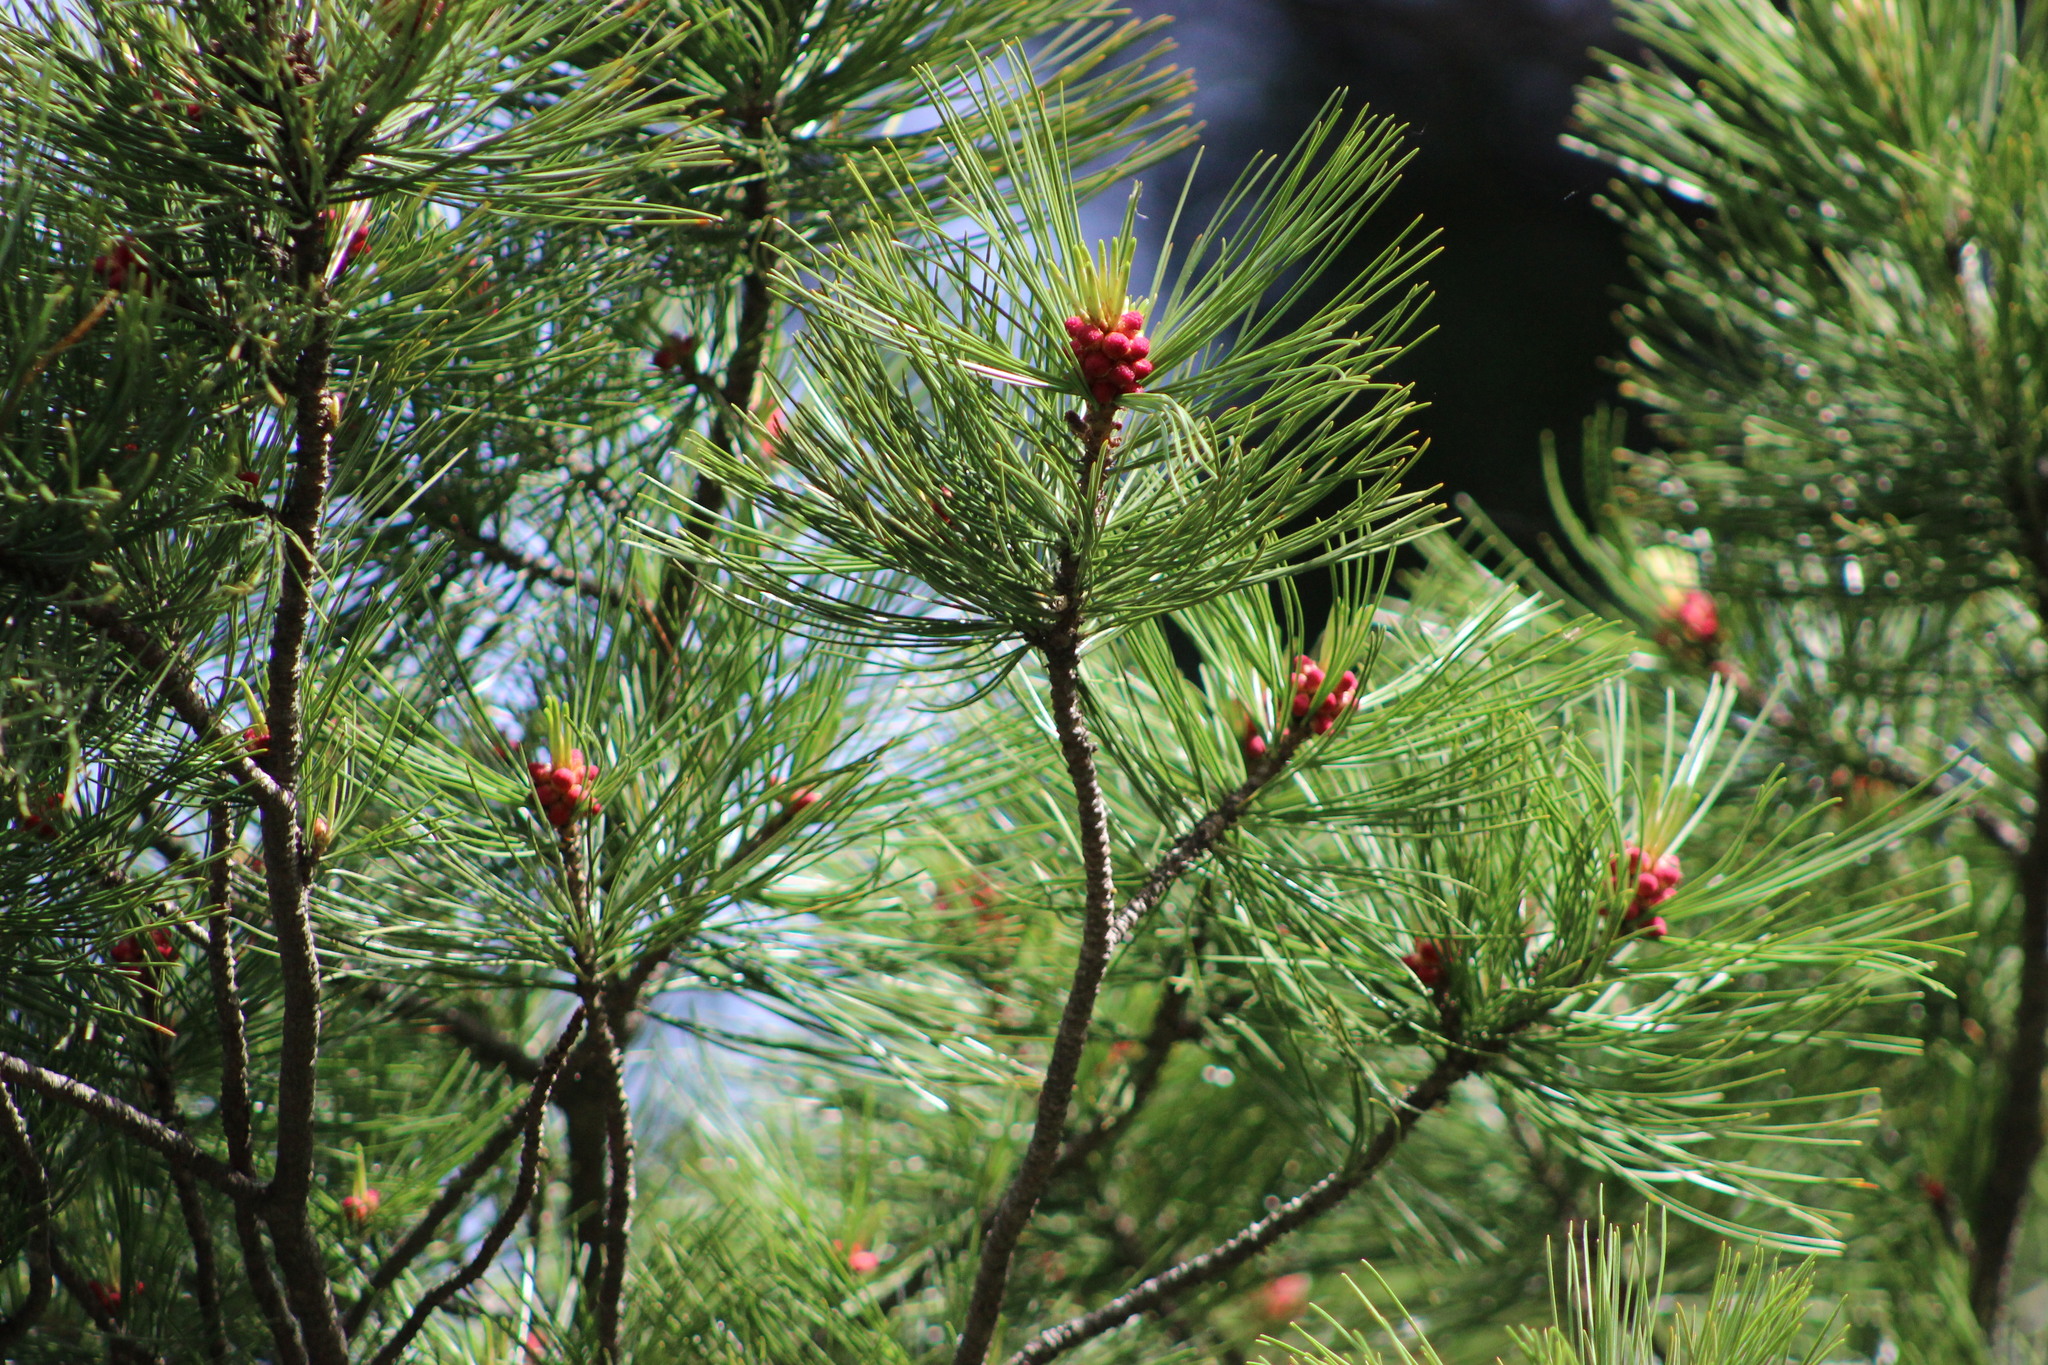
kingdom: Plantae
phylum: Tracheophyta
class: Pinopsida
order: Pinales
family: Pinaceae
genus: Pinus
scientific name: Pinus sibirica
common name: Siberian pine
